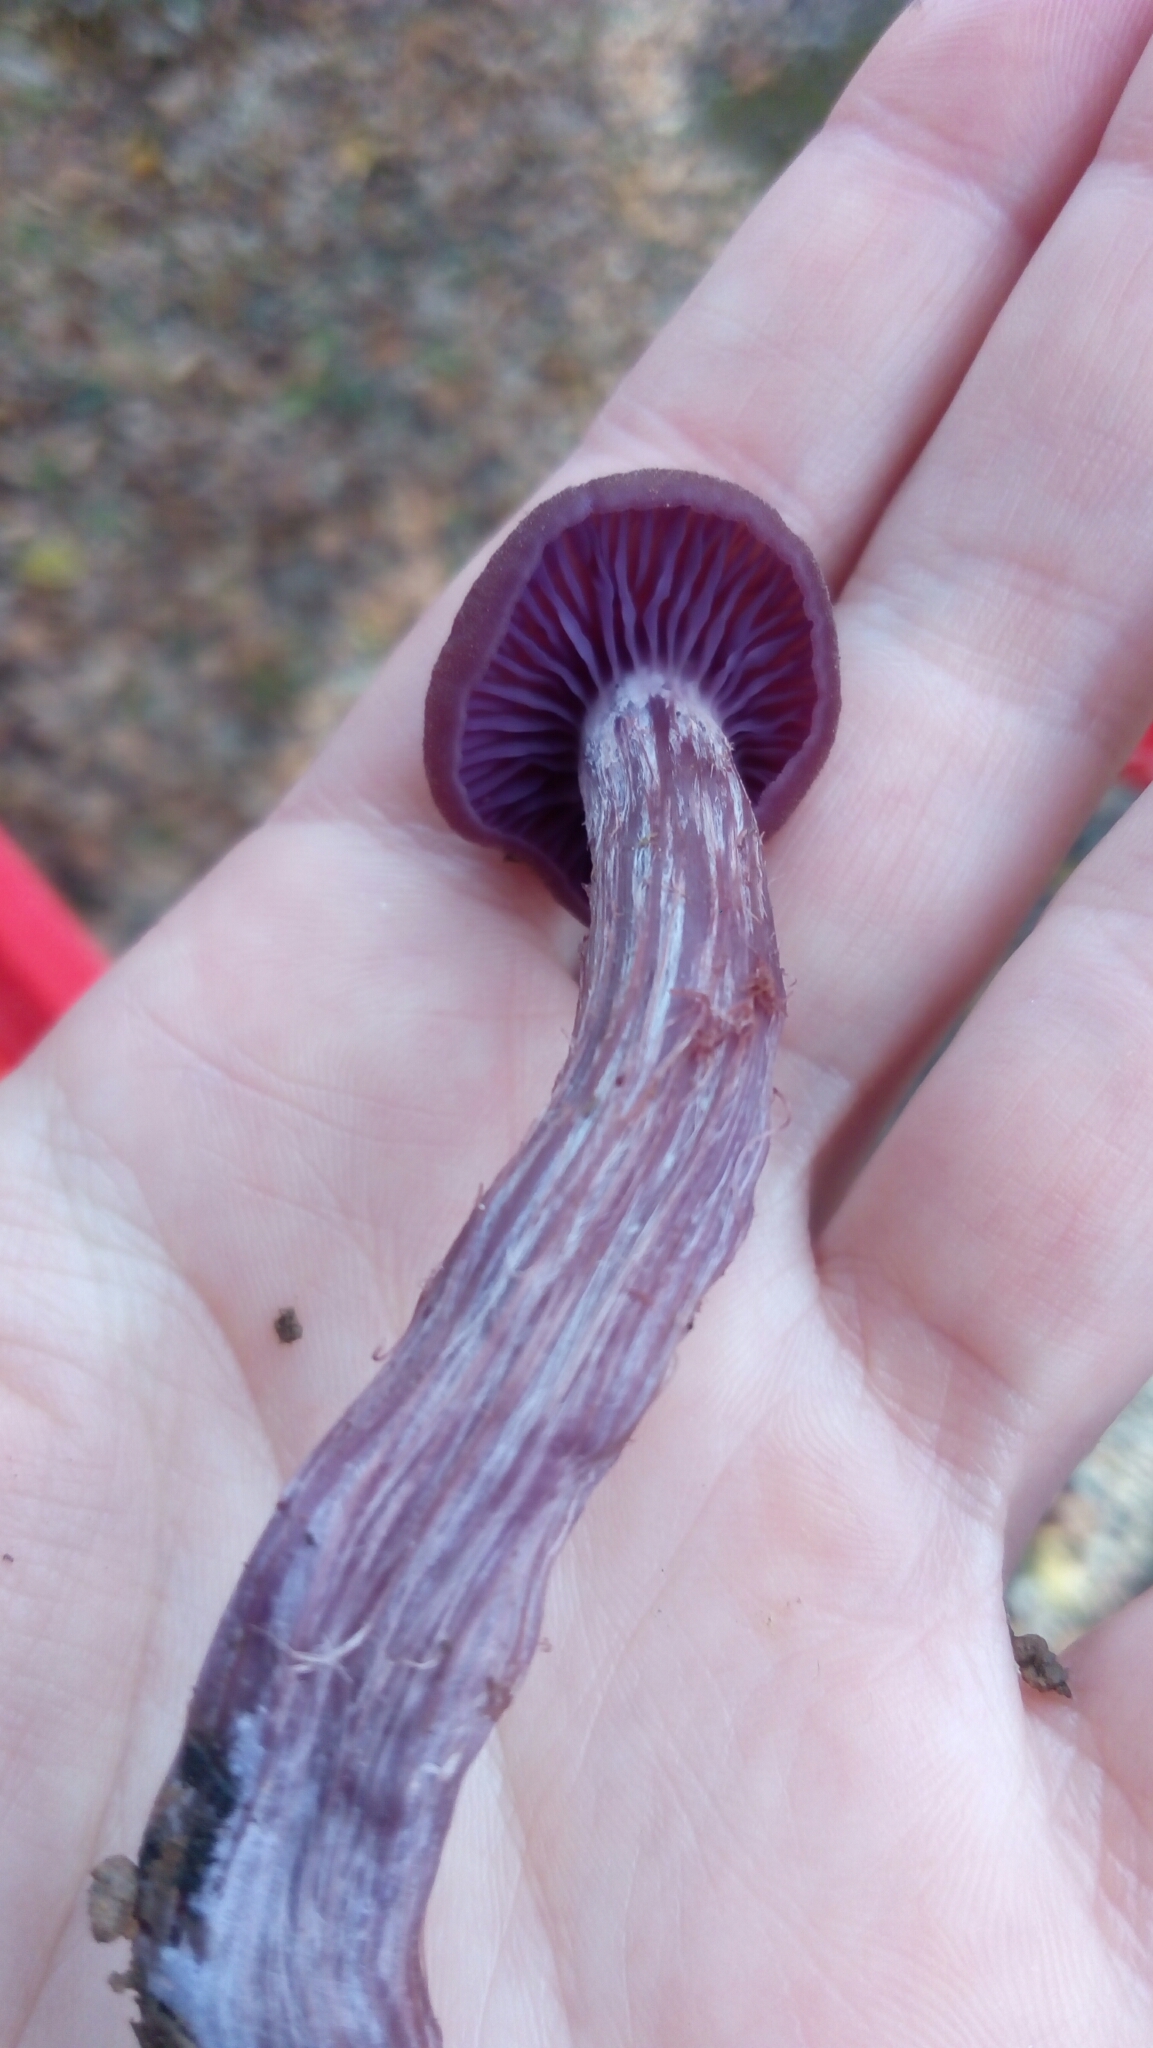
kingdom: Fungi
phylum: Basidiomycota
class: Agaricomycetes
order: Agaricales
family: Hydnangiaceae
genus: Laccaria
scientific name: Laccaria amethysteo-occidentalis
